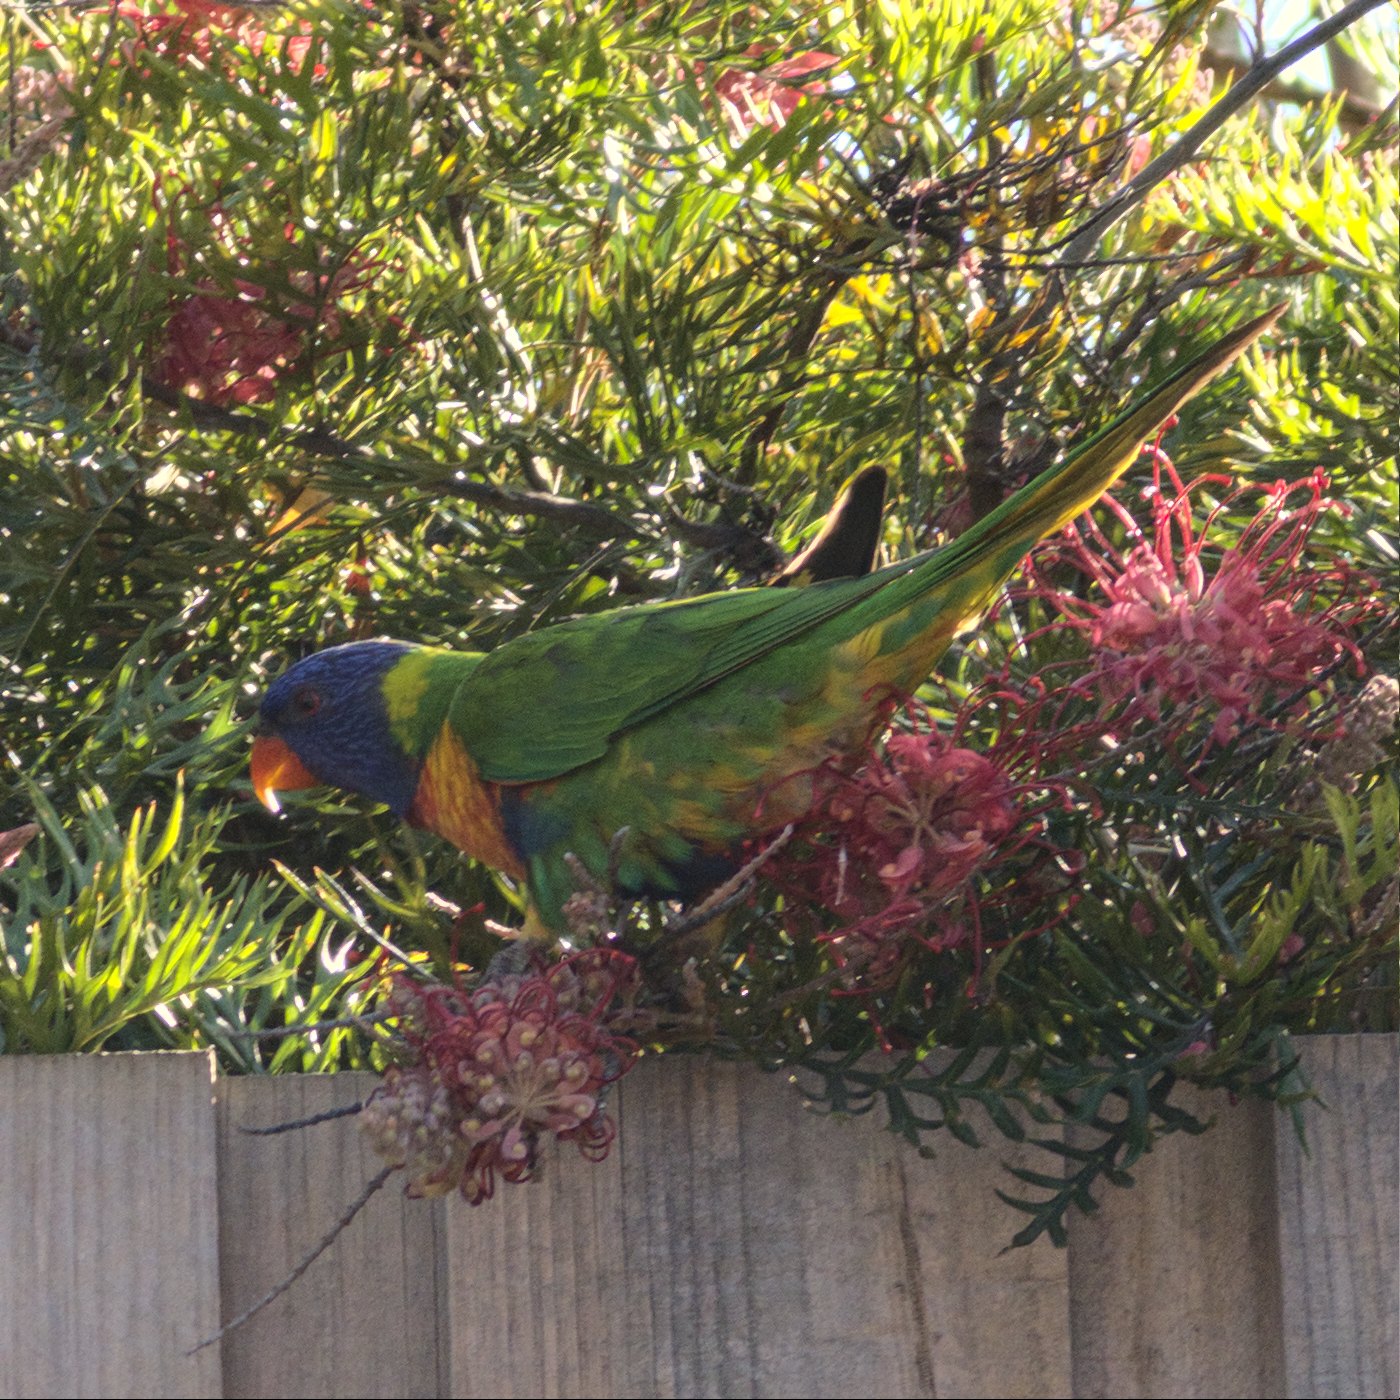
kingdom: Animalia
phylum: Chordata
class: Aves
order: Psittaciformes
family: Psittacidae
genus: Trichoglossus
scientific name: Trichoglossus haematodus
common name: Coconut lorikeet
